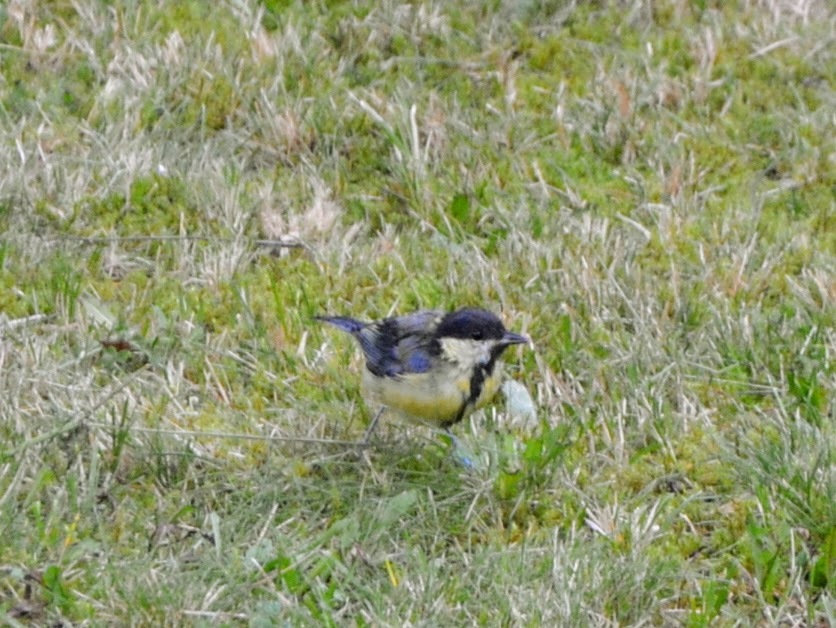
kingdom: Animalia
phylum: Chordata
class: Aves
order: Passeriformes
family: Paridae
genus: Parus
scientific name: Parus major
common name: Great tit
